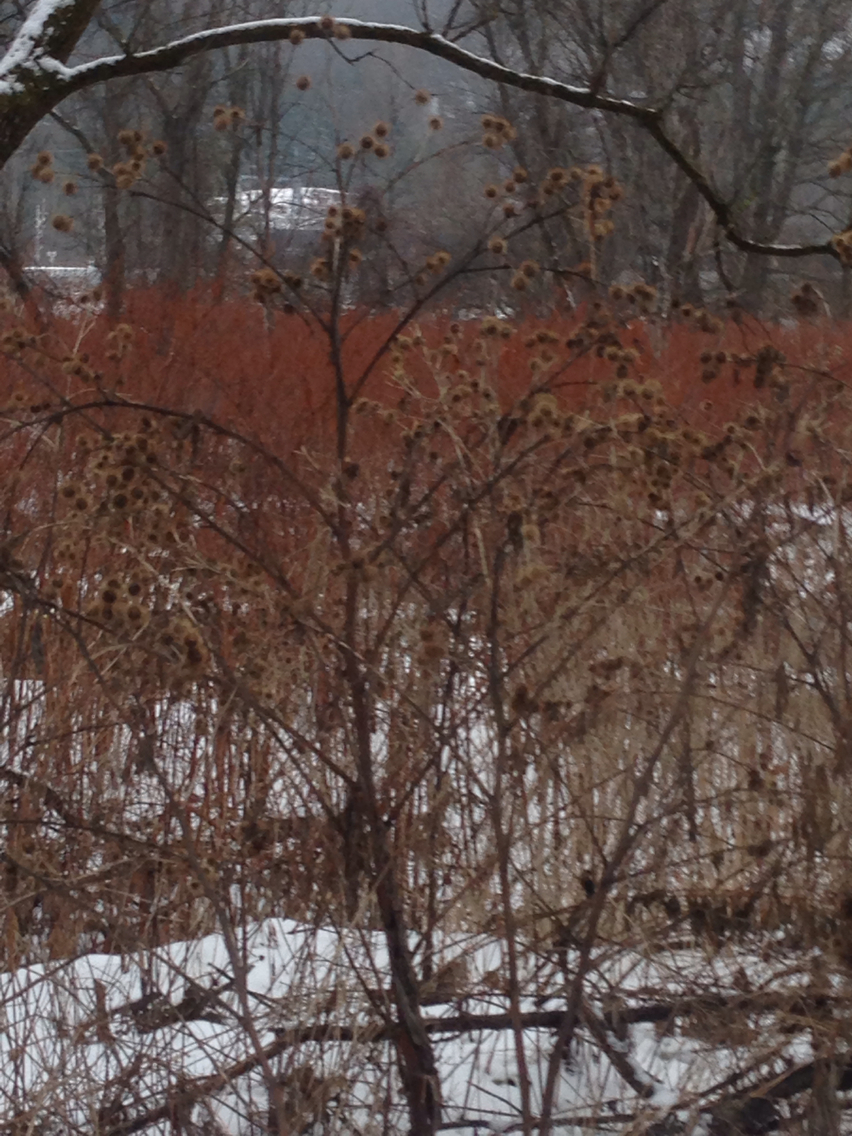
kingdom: Plantae
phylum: Tracheophyta
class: Magnoliopsida
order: Asterales
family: Asteraceae
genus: Arctium
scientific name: Arctium lappa
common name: Greater burdock
